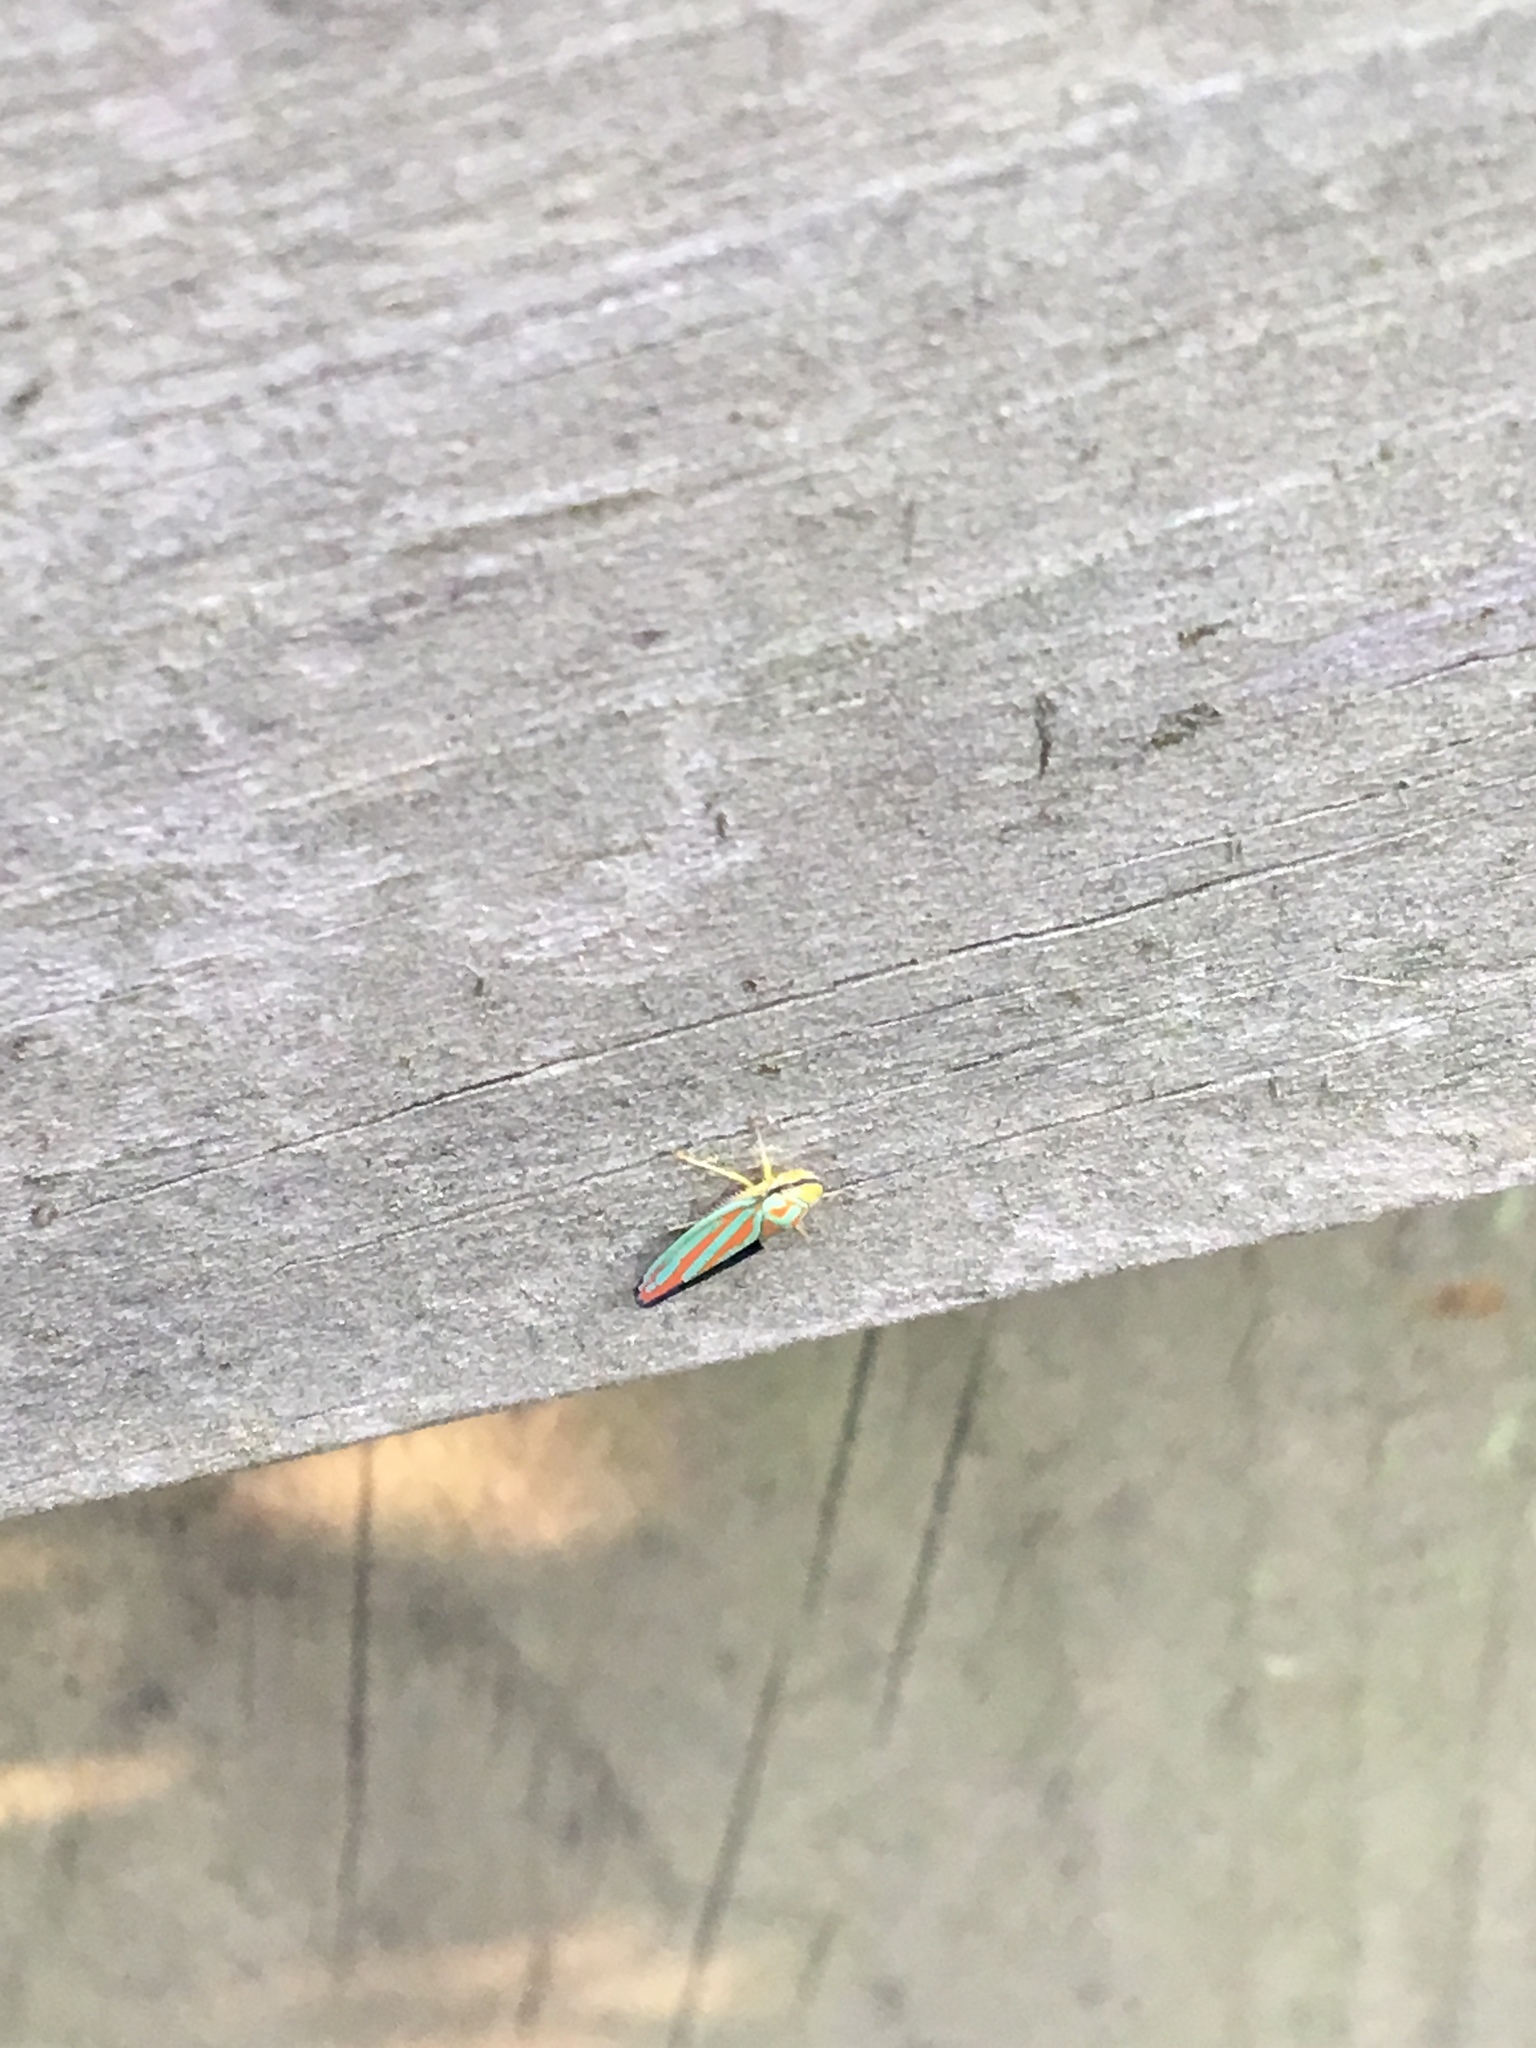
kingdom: Animalia
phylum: Arthropoda
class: Insecta
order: Hemiptera
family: Cicadellidae
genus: Graphocephala
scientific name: Graphocephala
